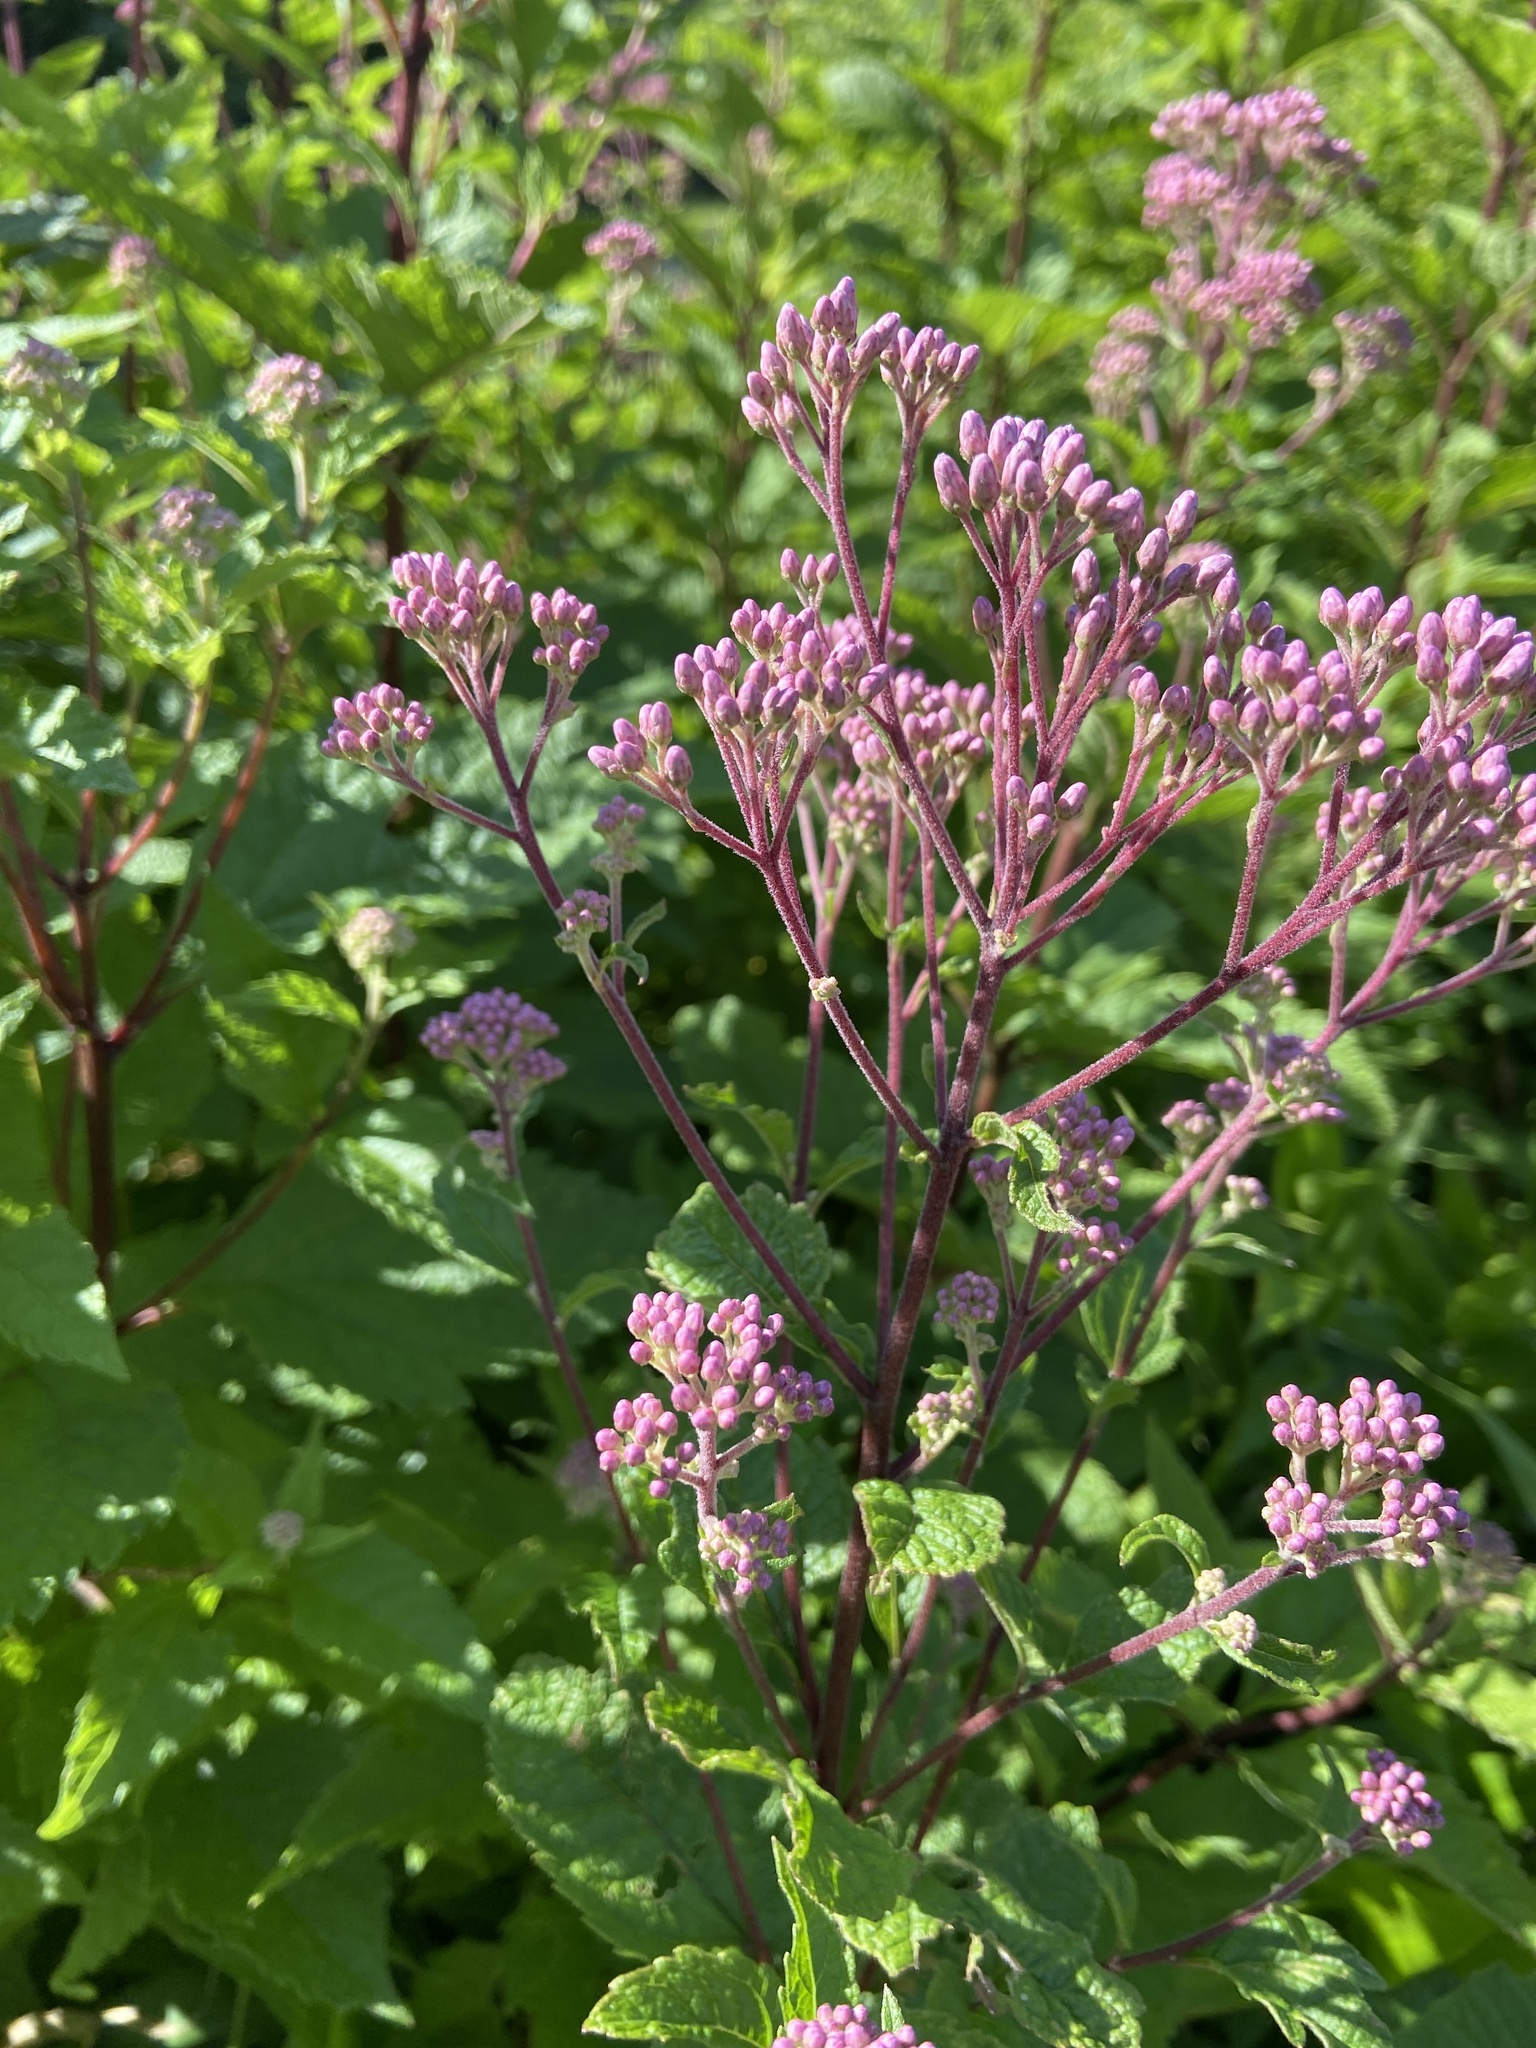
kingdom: Plantae
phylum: Tracheophyta
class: Magnoliopsida
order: Asterales
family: Asteraceae
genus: Eutrochium
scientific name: Eutrochium dubium
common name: Coastal plain joe pye weed
